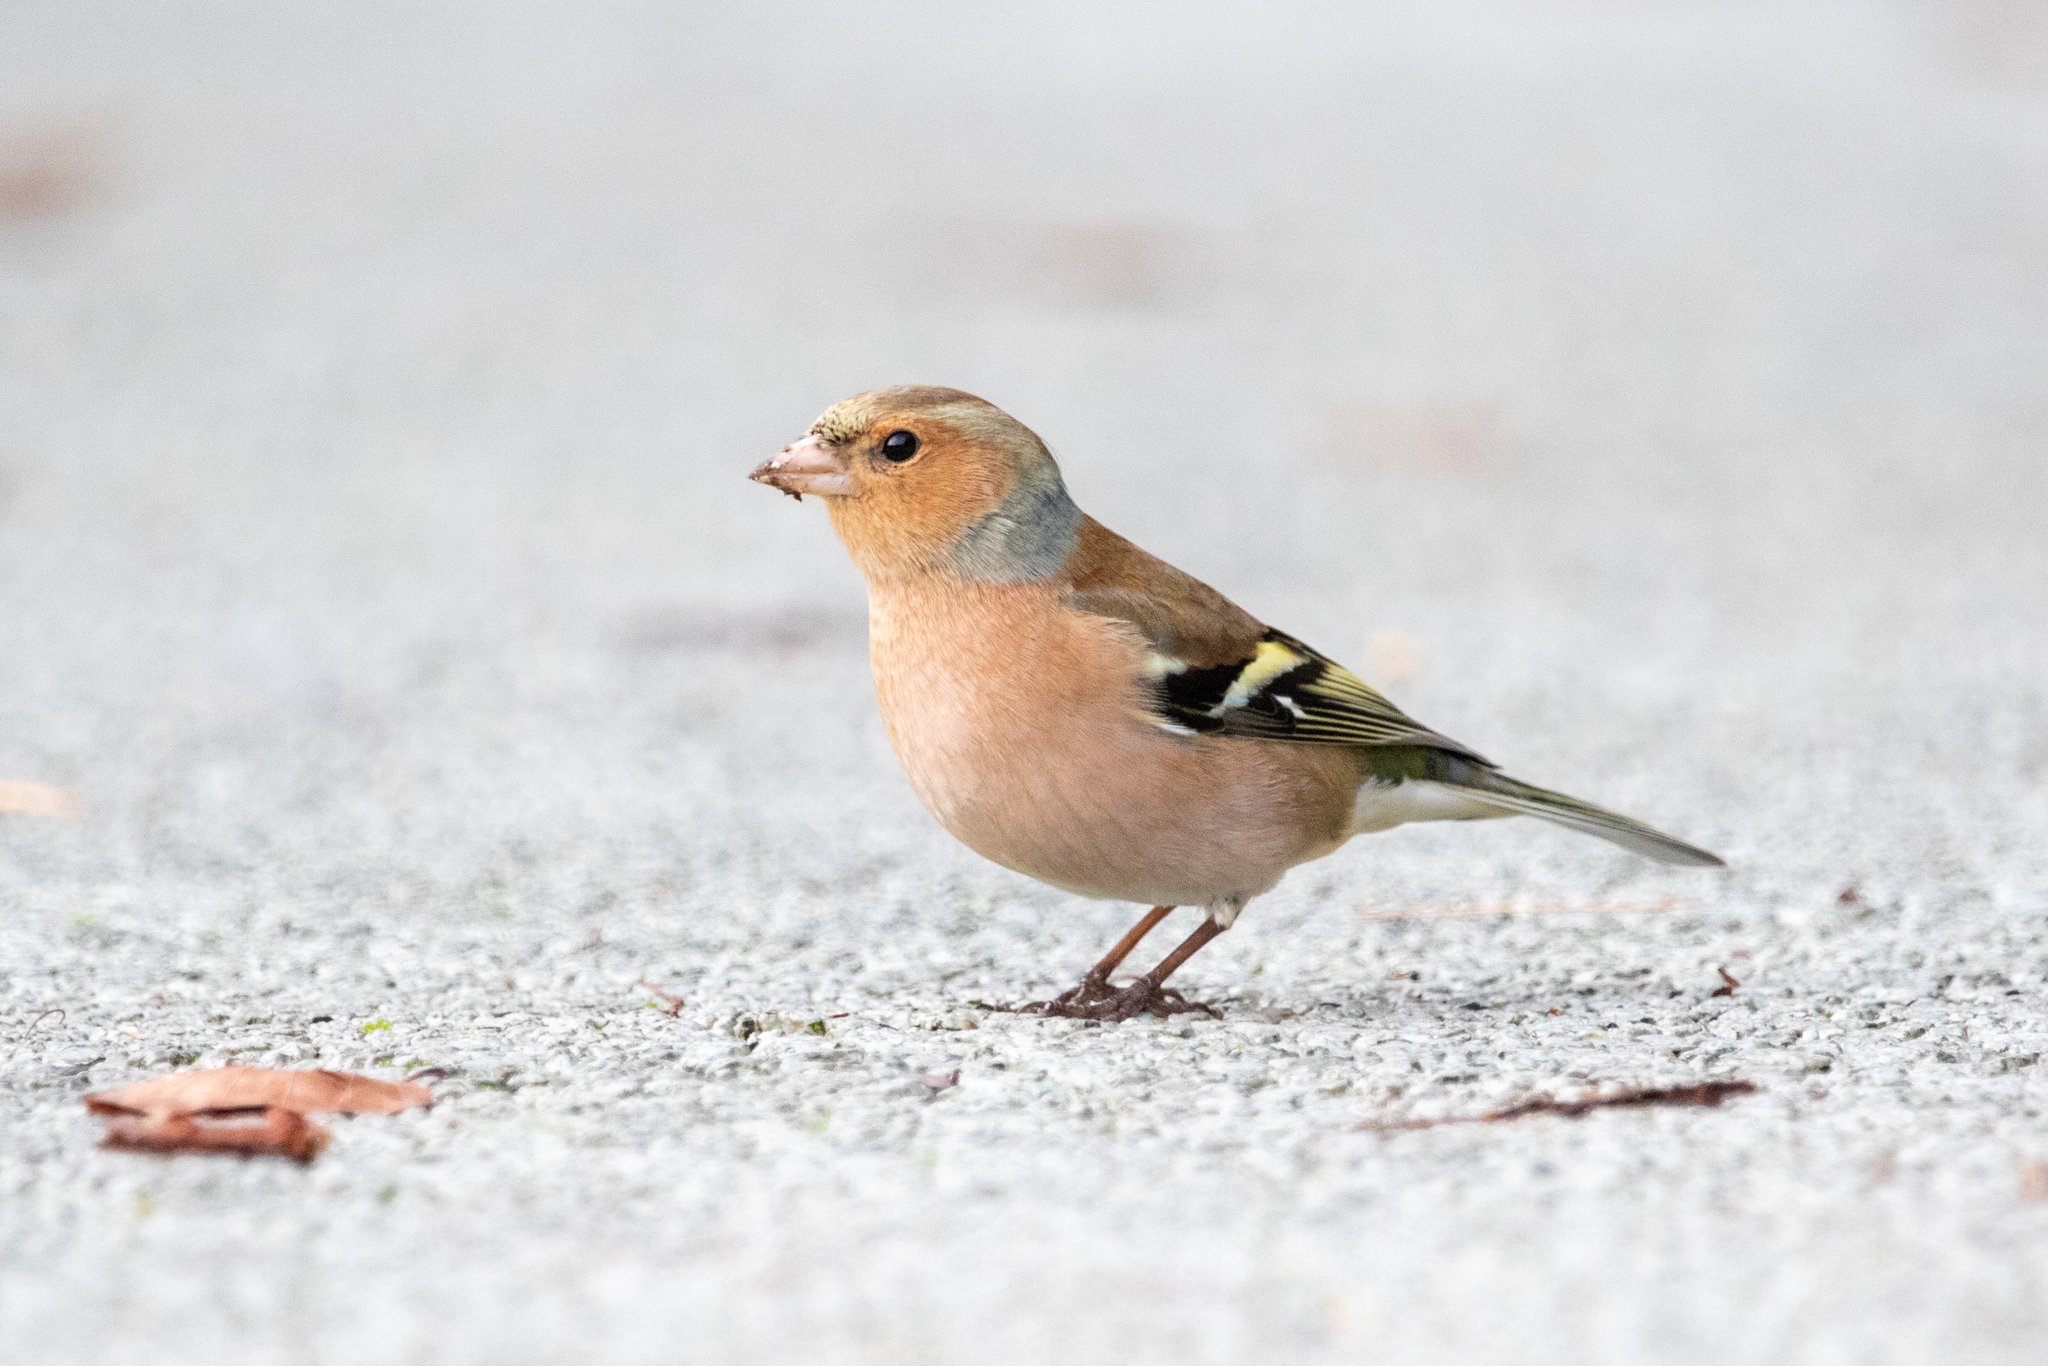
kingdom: Animalia
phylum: Chordata
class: Aves
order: Passeriformes
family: Fringillidae
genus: Fringilla
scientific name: Fringilla coelebs
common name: Common chaffinch
